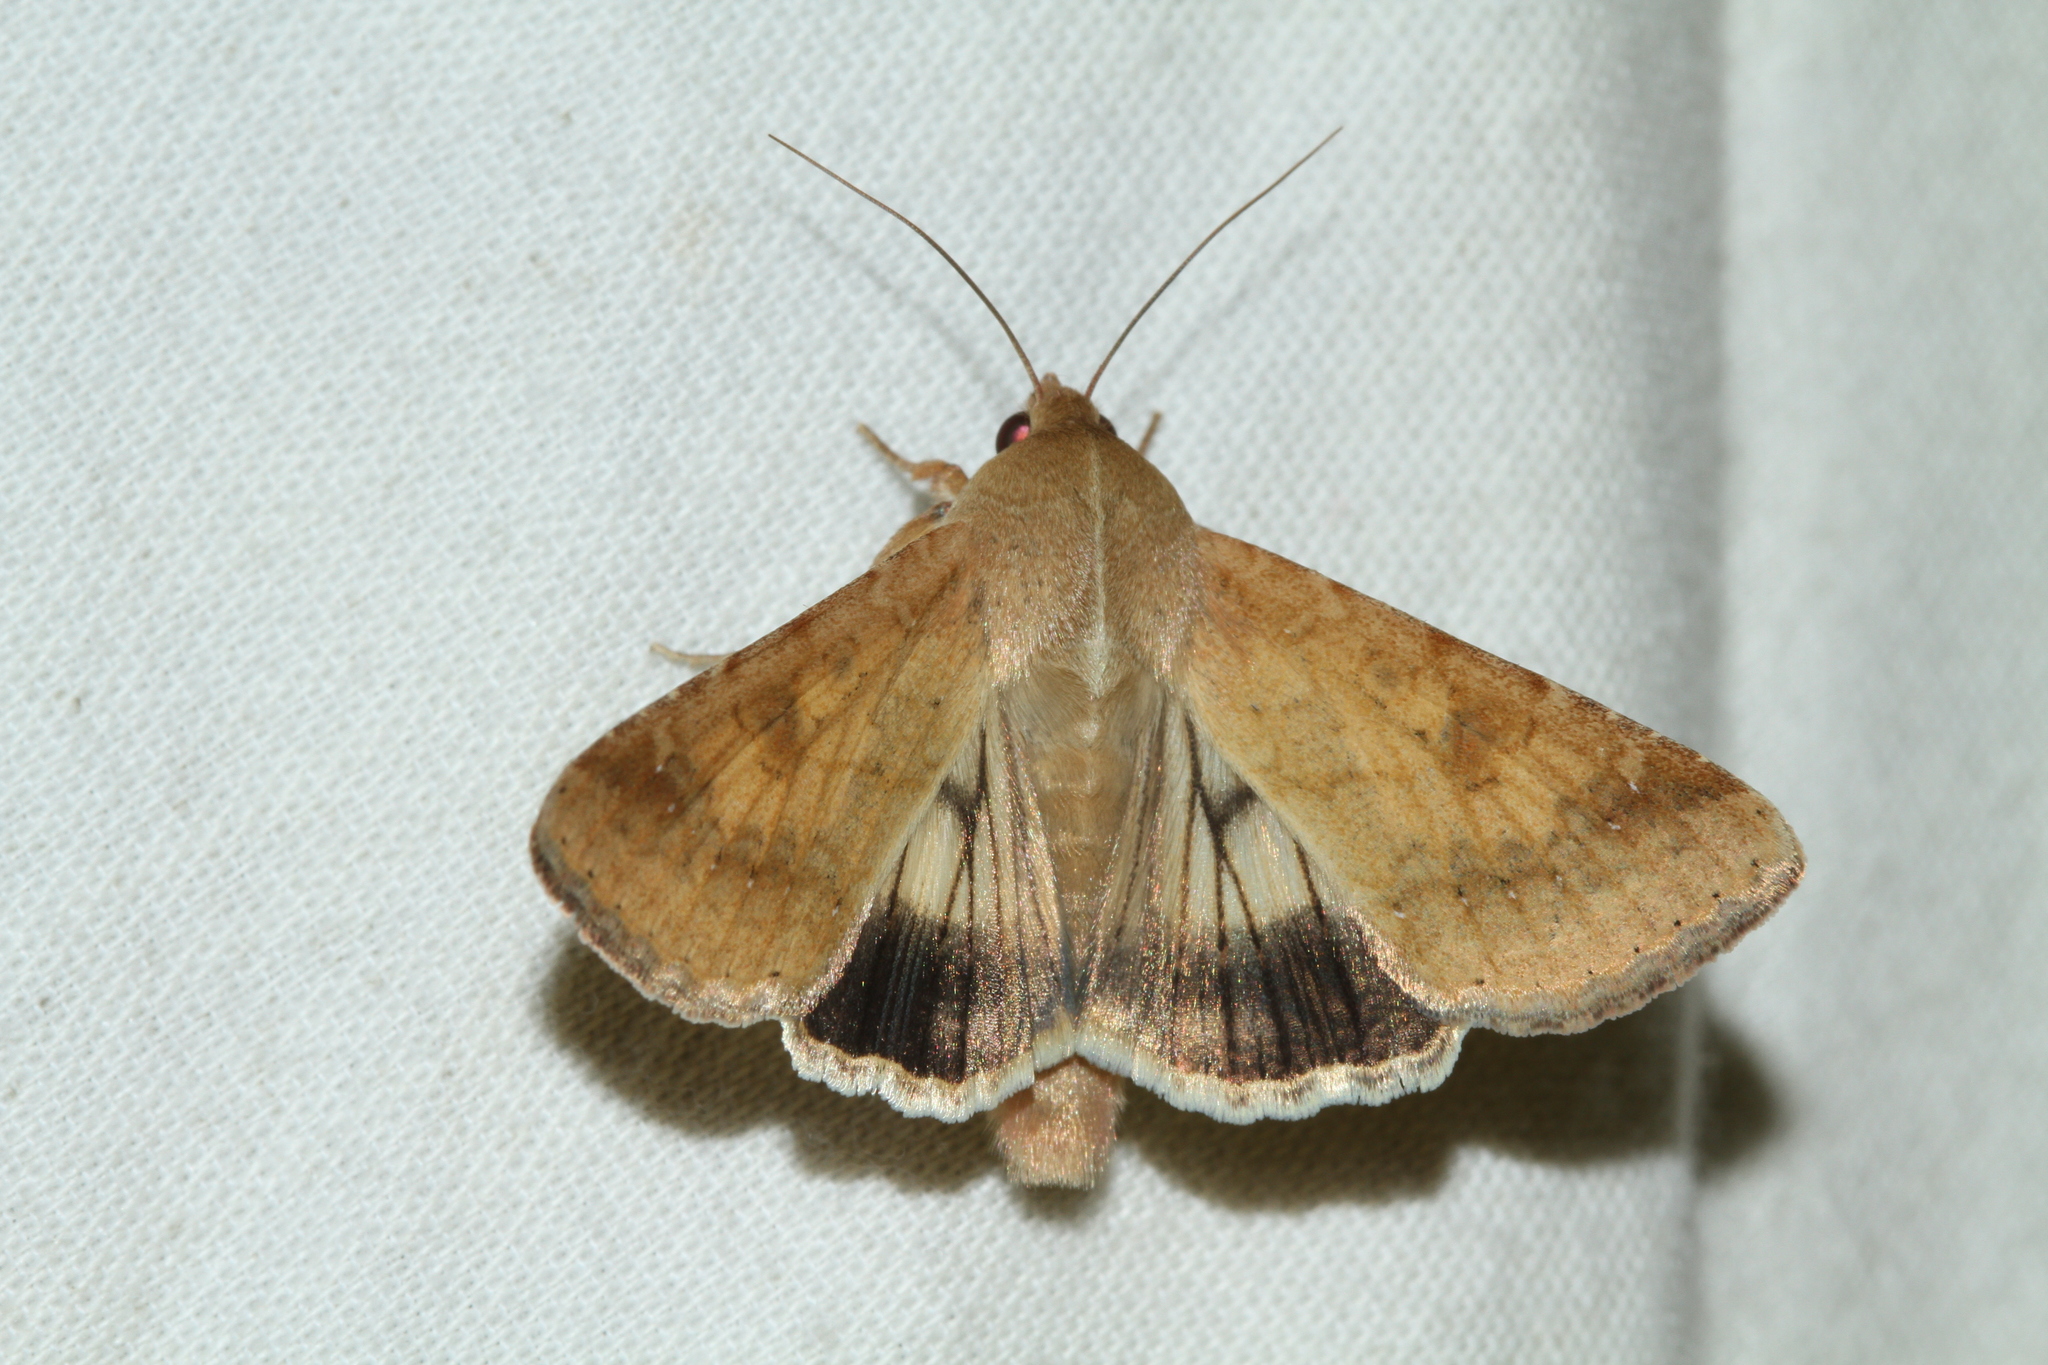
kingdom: Animalia
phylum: Arthropoda
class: Insecta
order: Lepidoptera
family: Noctuidae
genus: Helicoverpa
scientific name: Helicoverpa armigera
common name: Cotton bollworm
